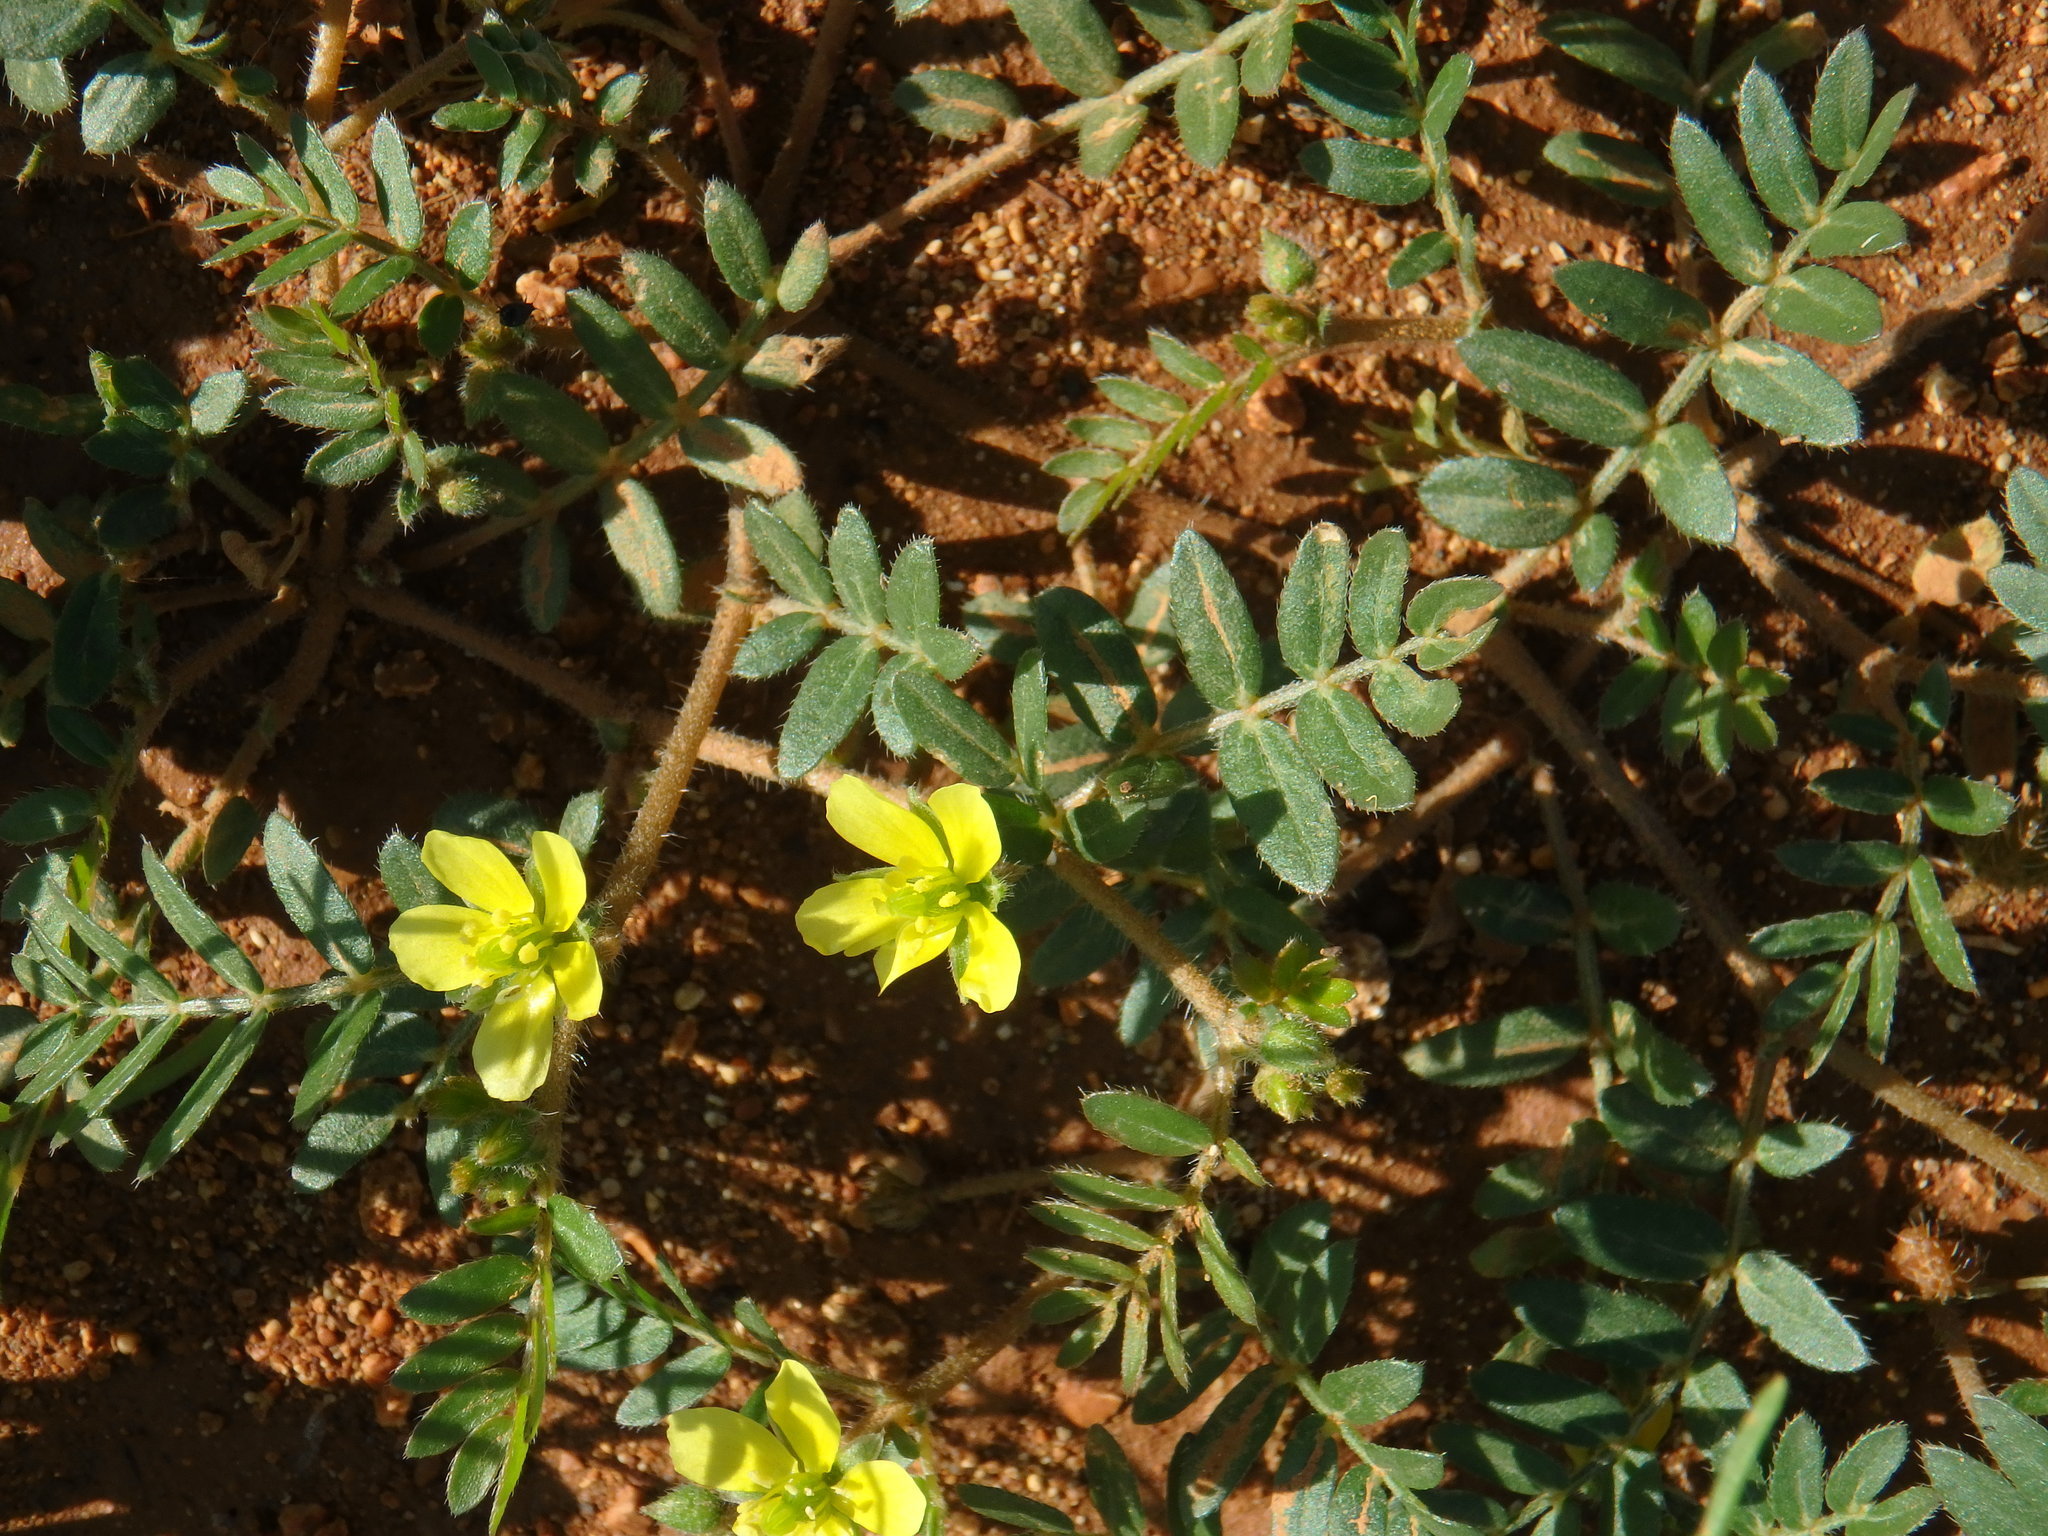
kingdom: Plantae
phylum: Tracheophyta
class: Magnoliopsida
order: Zygophyllales
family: Zygophyllaceae
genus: Tribulus
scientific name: Tribulus terrestris
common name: Puncturevine
